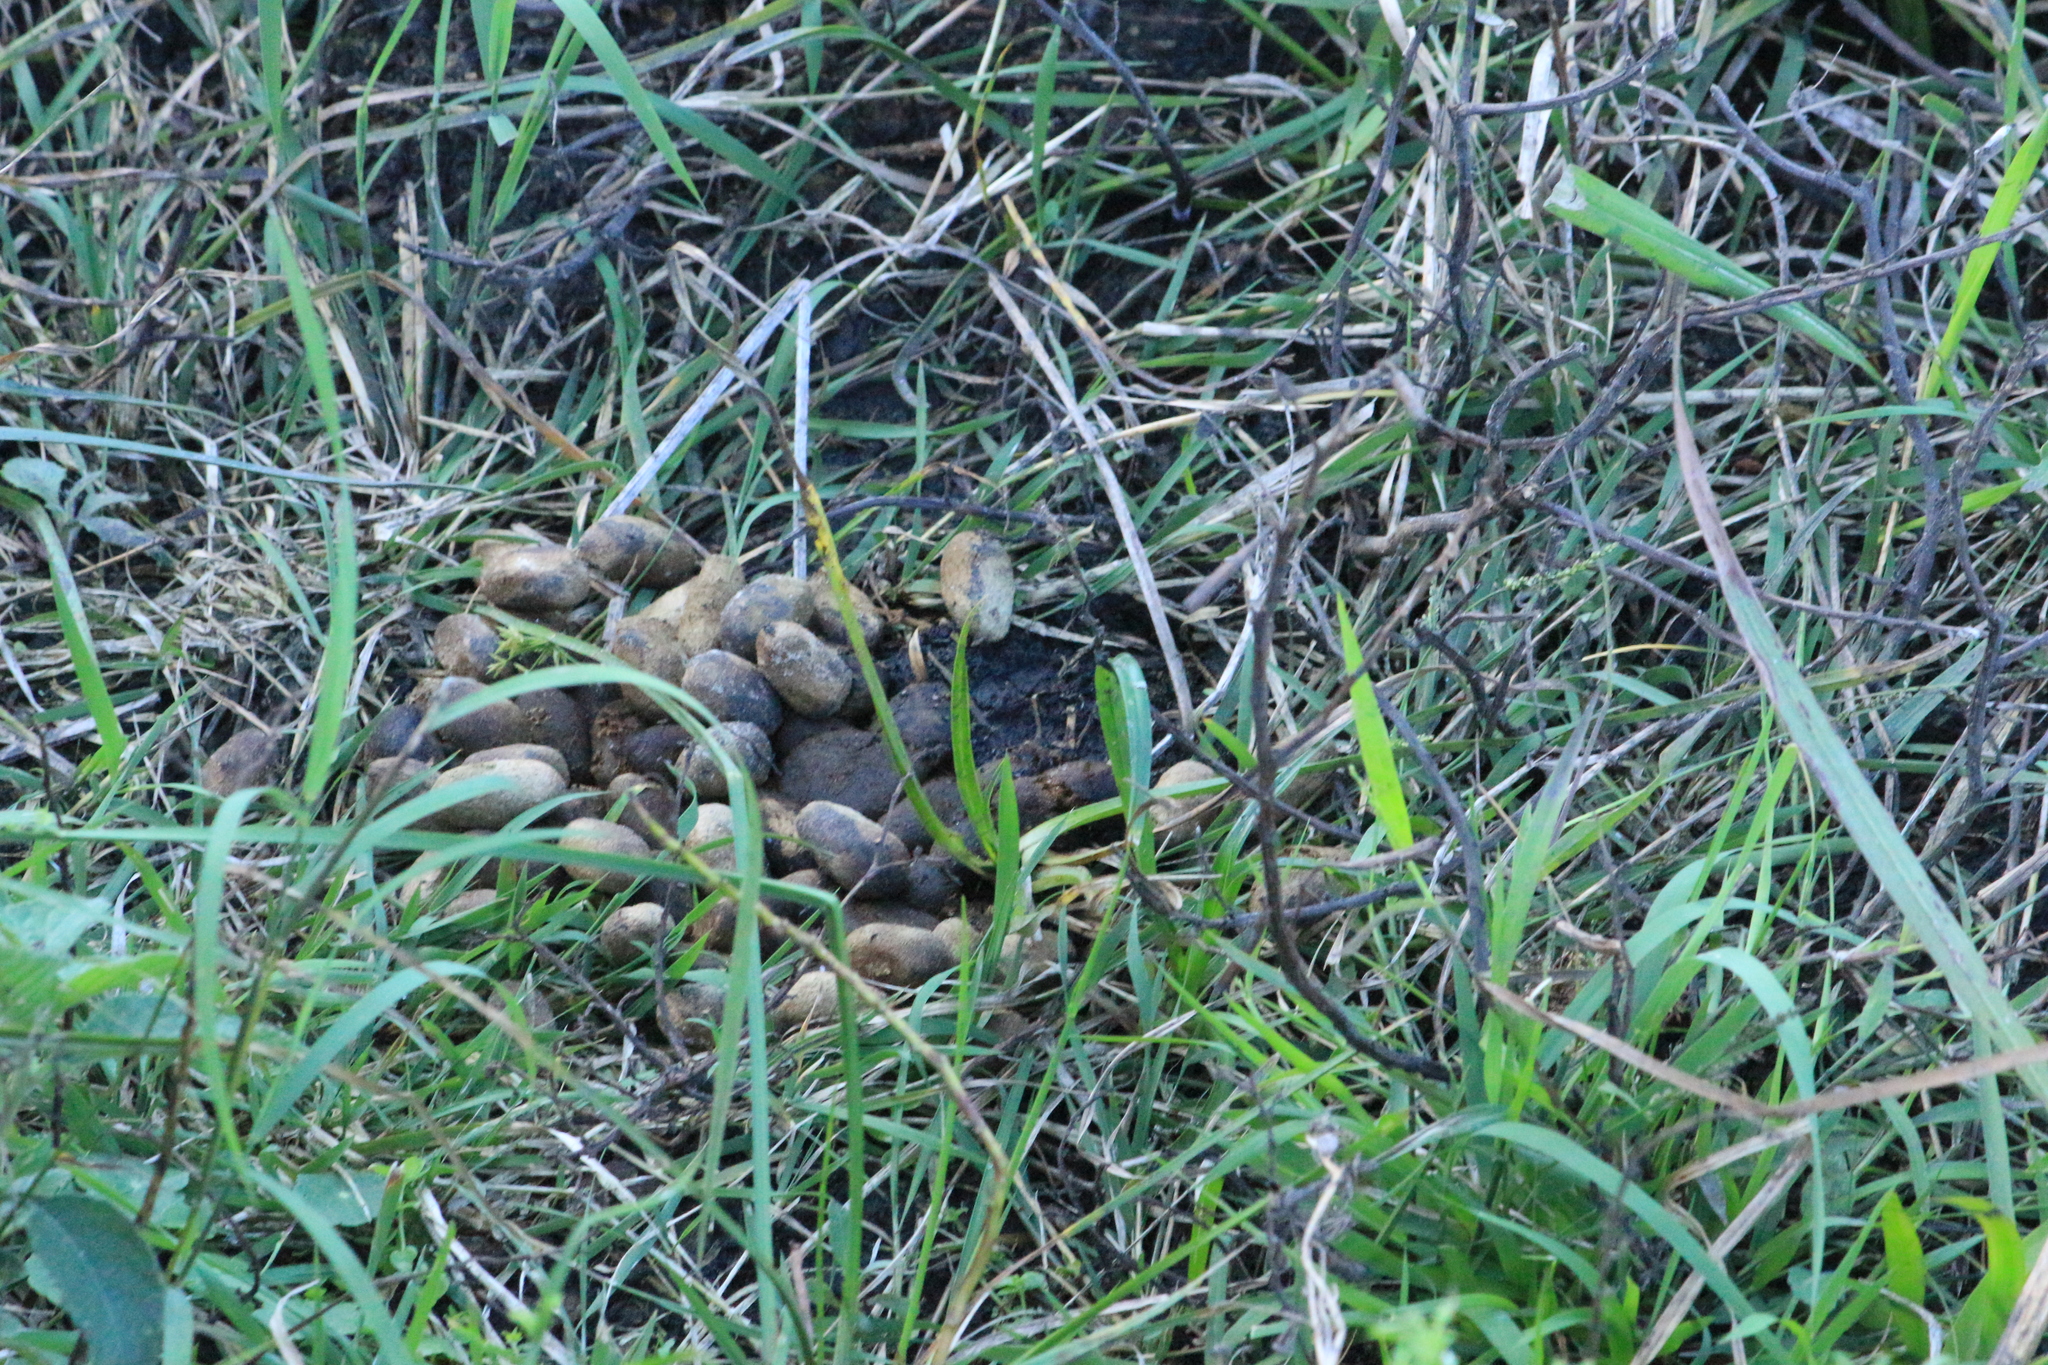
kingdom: Animalia
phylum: Chordata
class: Mammalia
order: Rodentia
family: Caviidae
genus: Hydrochoerus
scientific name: Hydrochoerus hydrochaeris
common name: Capybara
